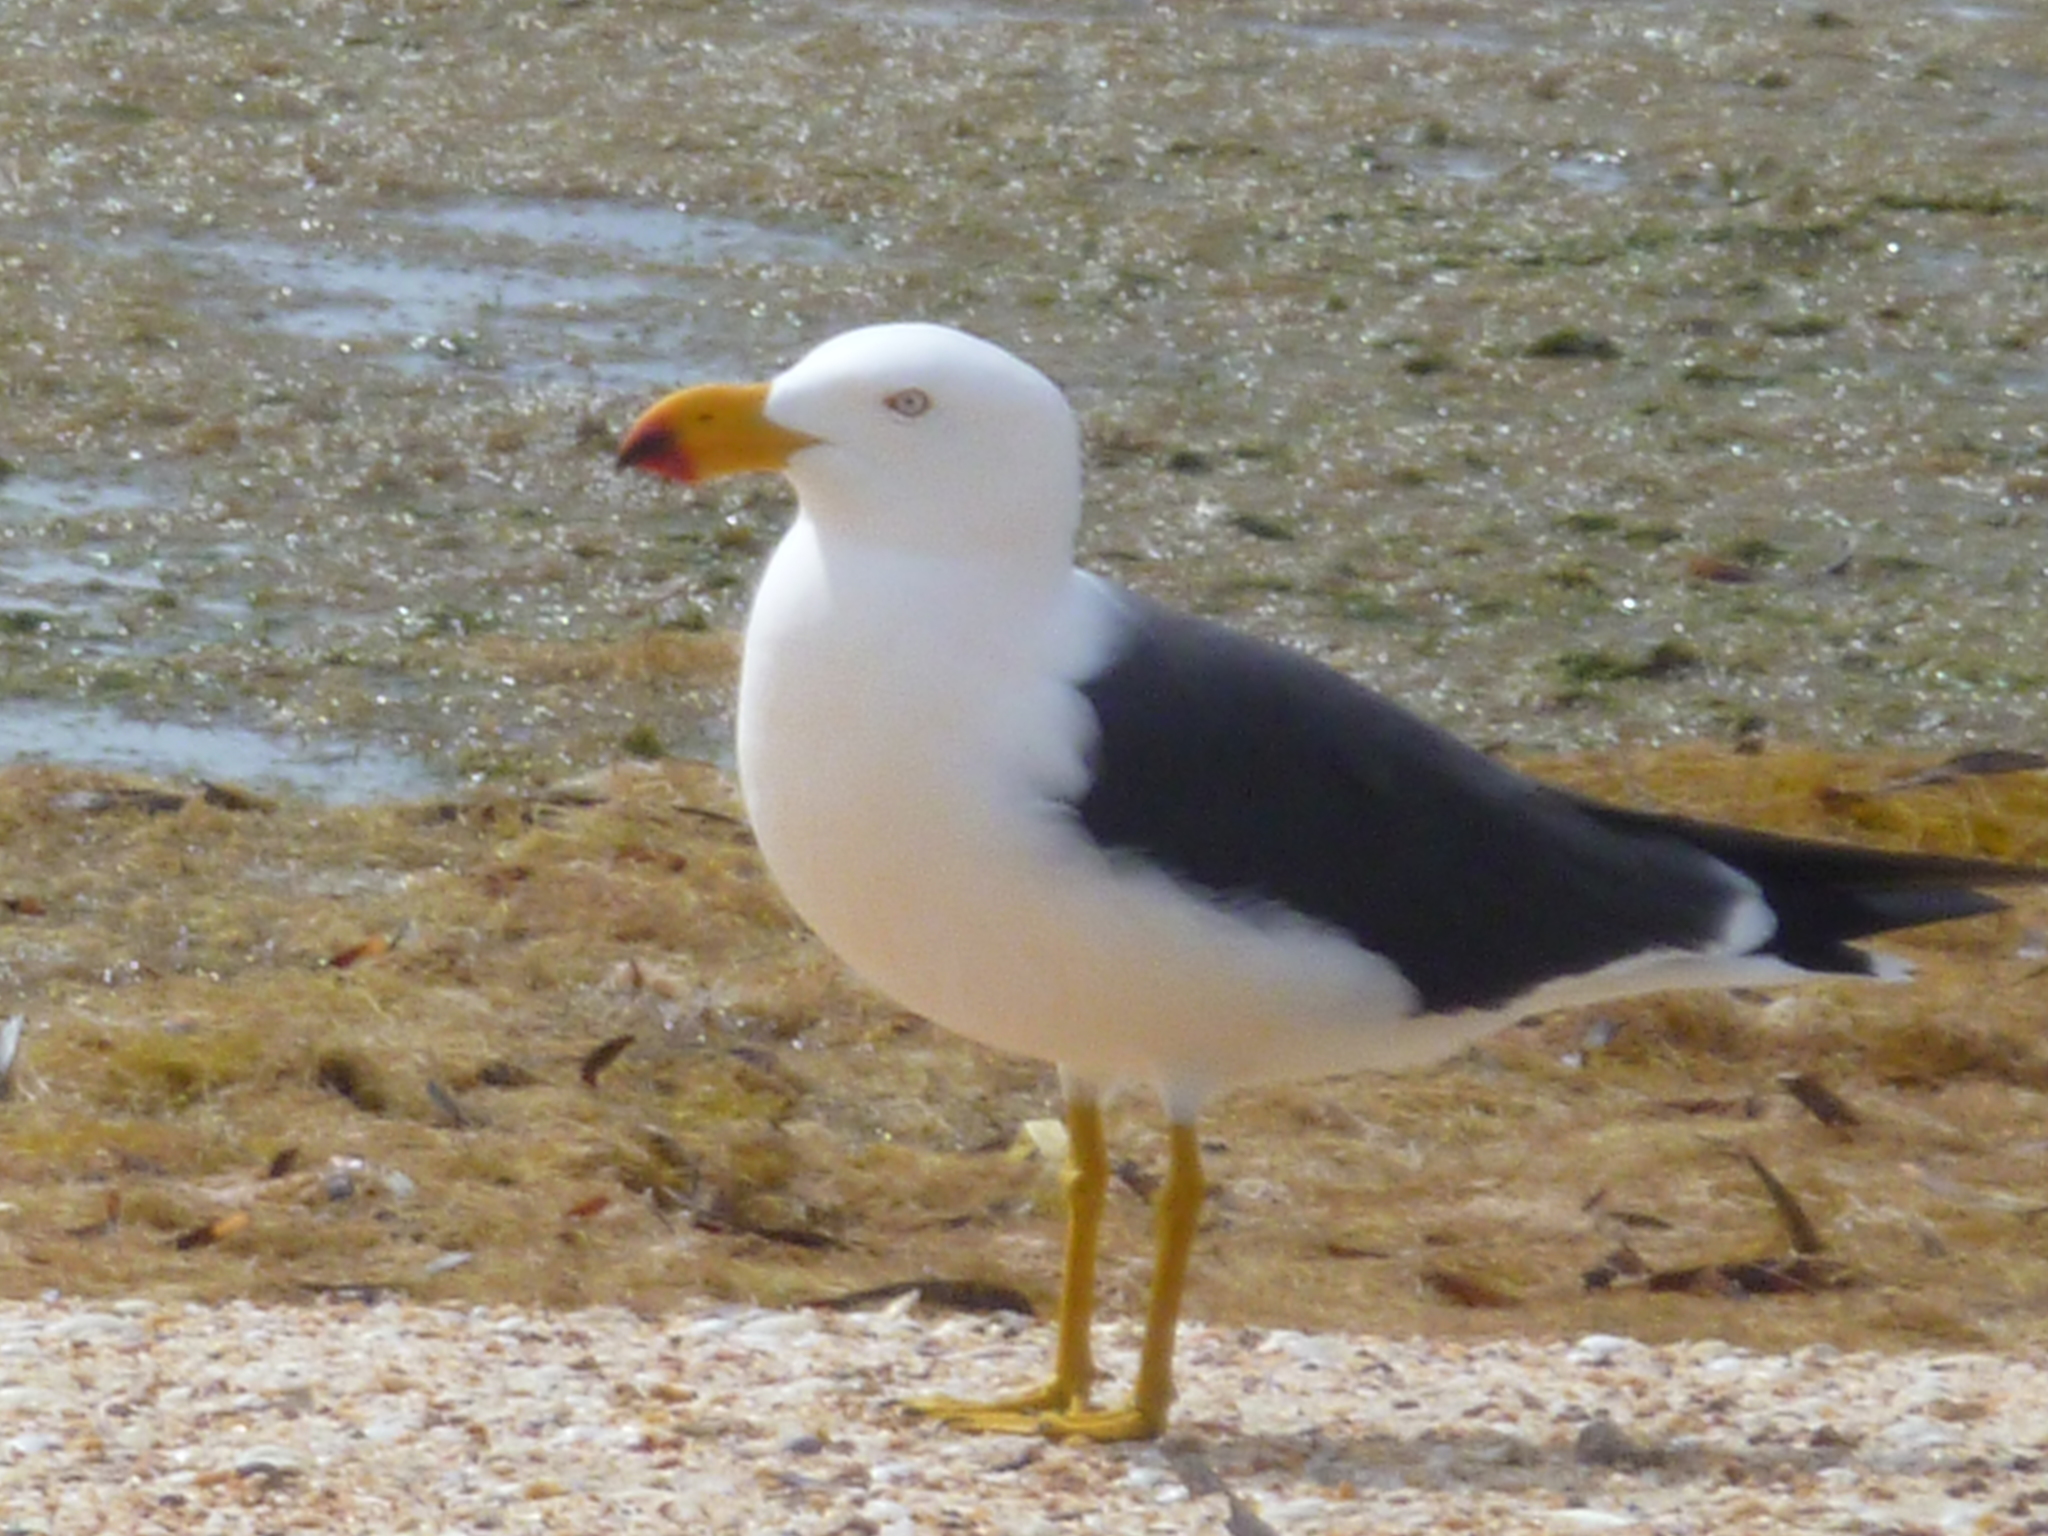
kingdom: Animalia
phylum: Chordata
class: Aves
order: Charadriiformes
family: Laridae
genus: Larus
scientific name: Larus pacificus
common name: Pacific gull
